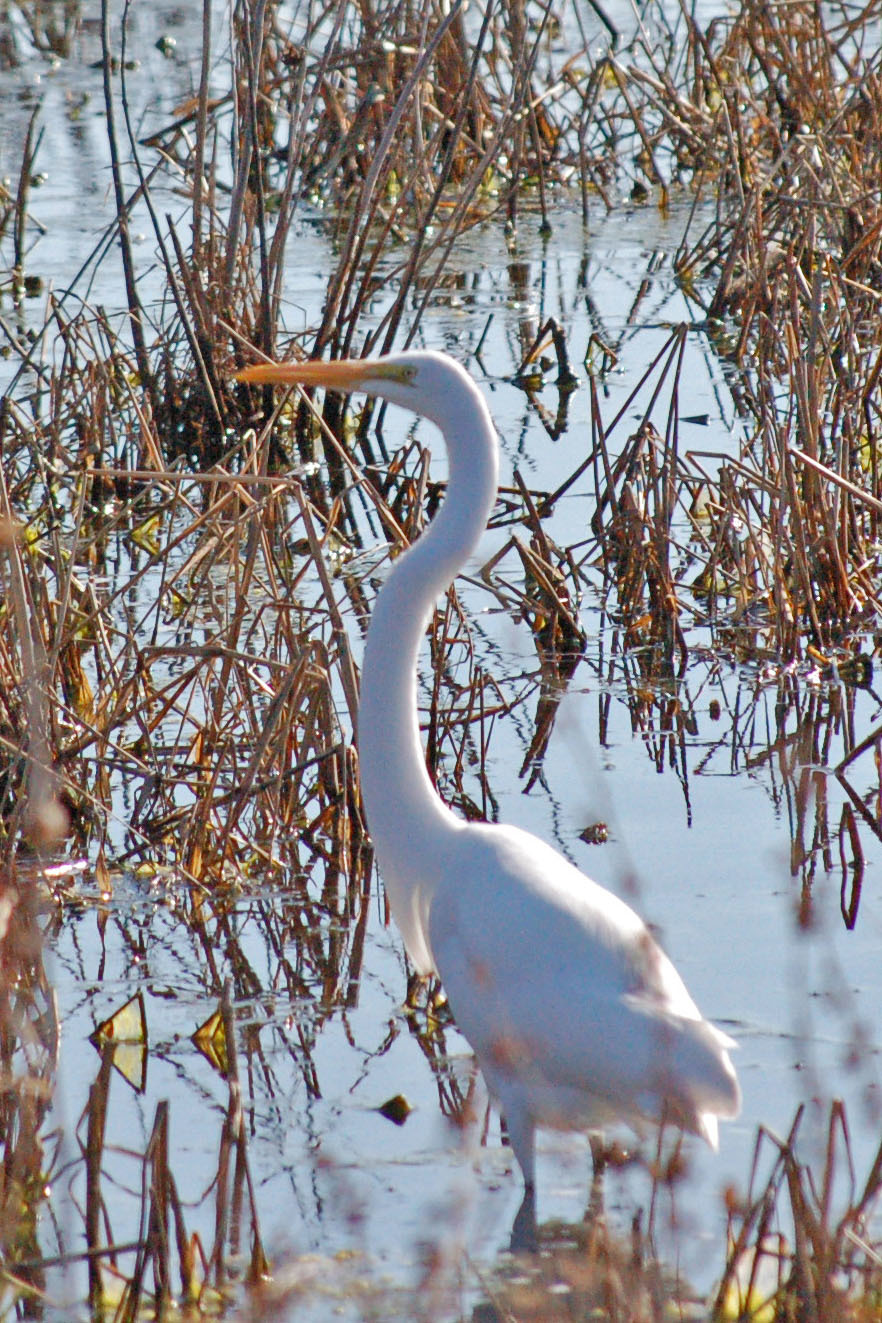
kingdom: Animalia
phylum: Chordata
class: Aves
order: Pelecaniformes
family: Ardeidae
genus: Ardea
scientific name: Ardea alba
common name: Great egret
